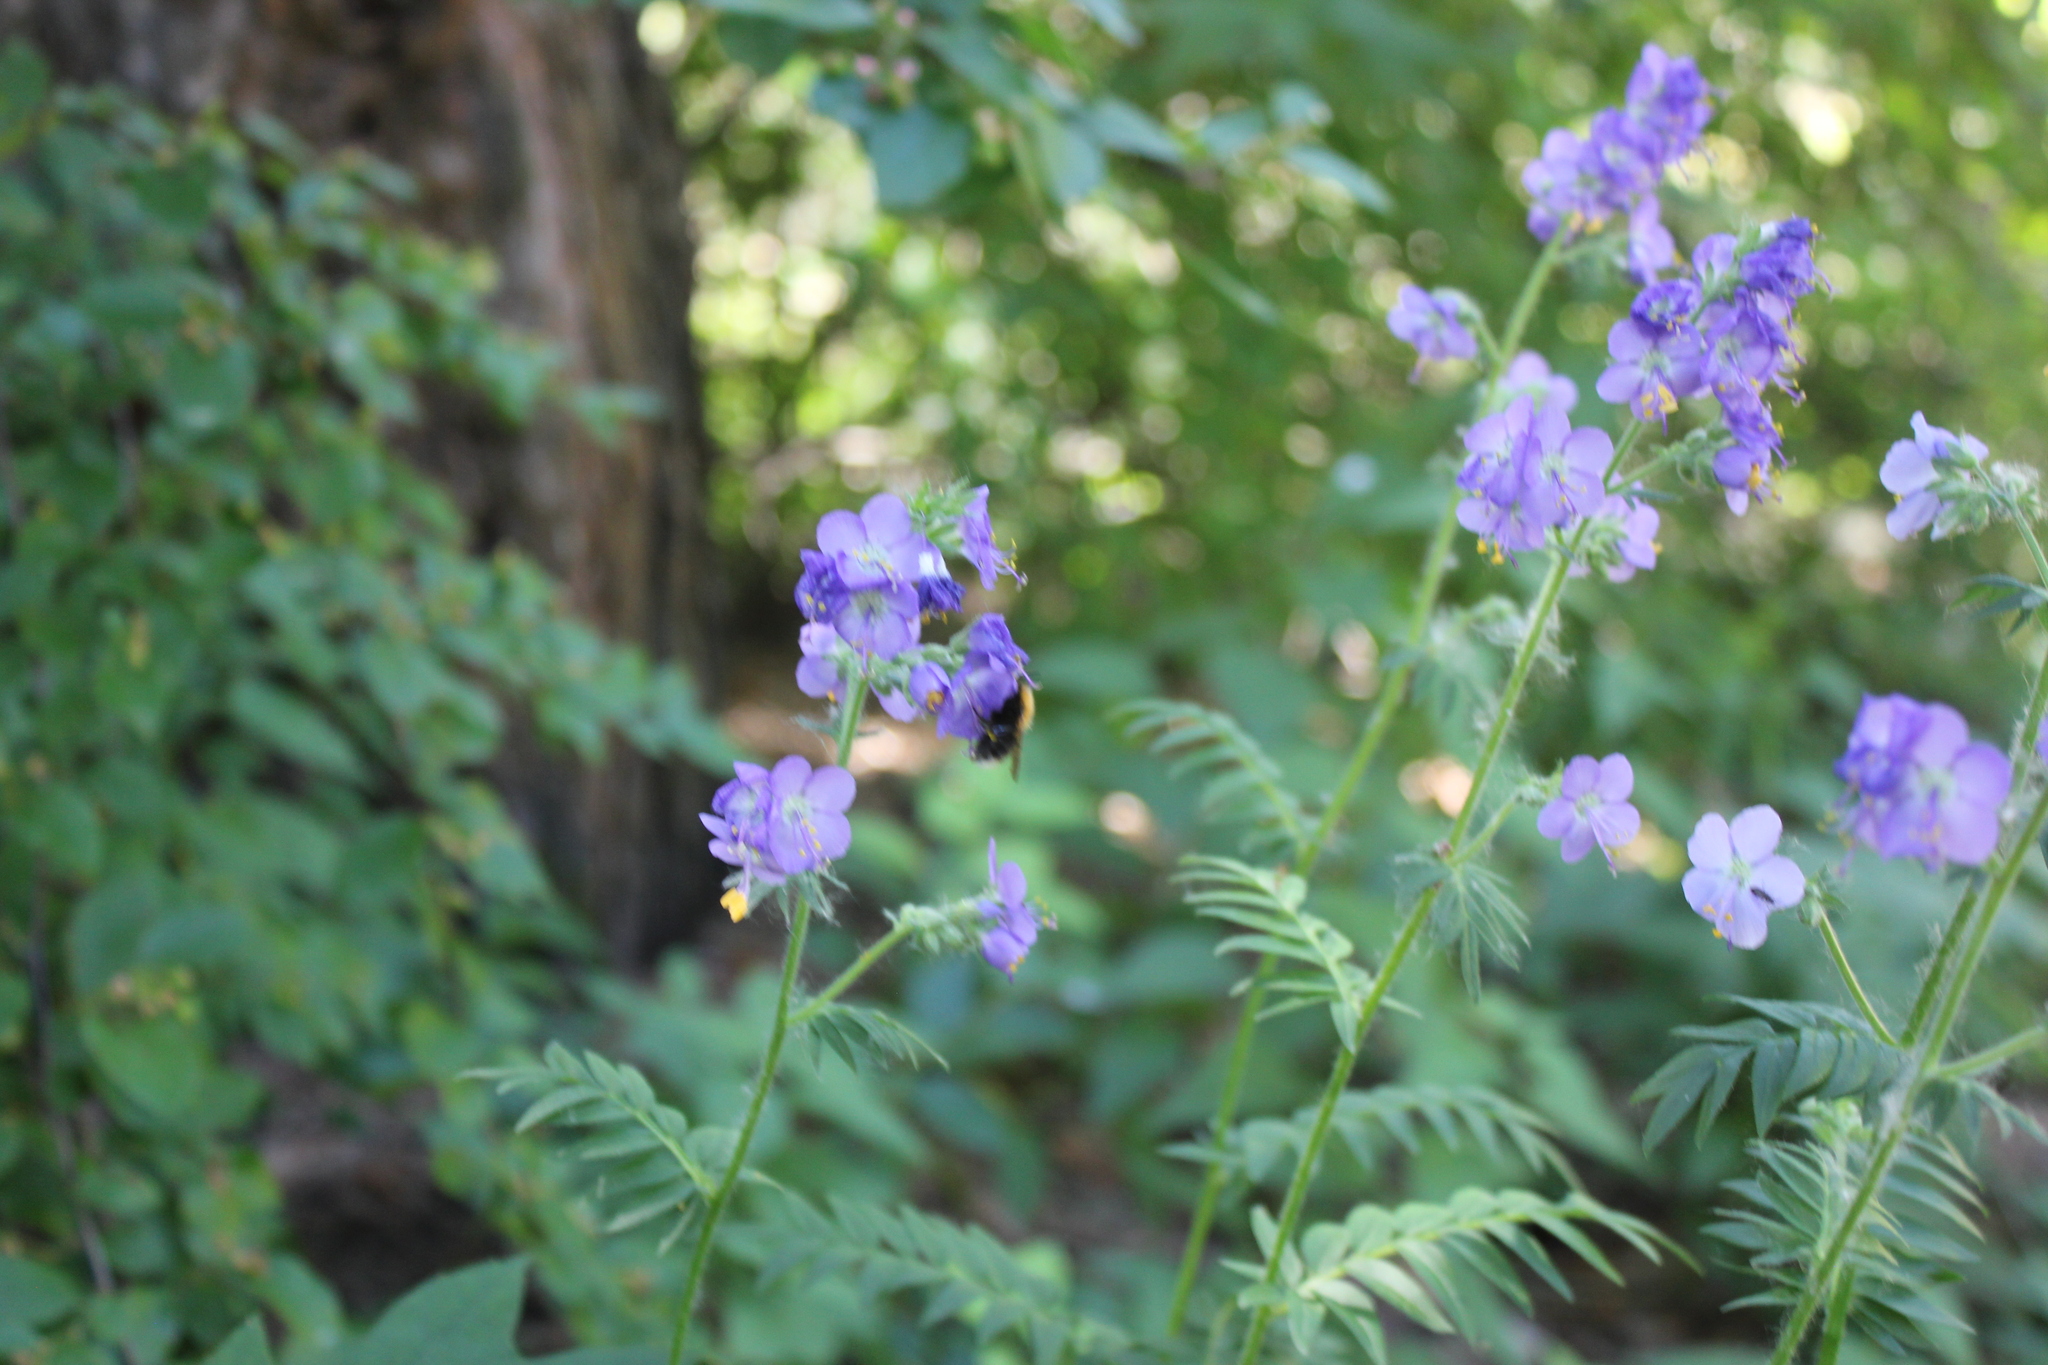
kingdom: Plantae
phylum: Tracheophyta
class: Magnoliopsida
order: Ericales
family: Polemoniaceae
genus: Polemonium
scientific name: Polemonium caeruleum
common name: Jacob's-ladder
